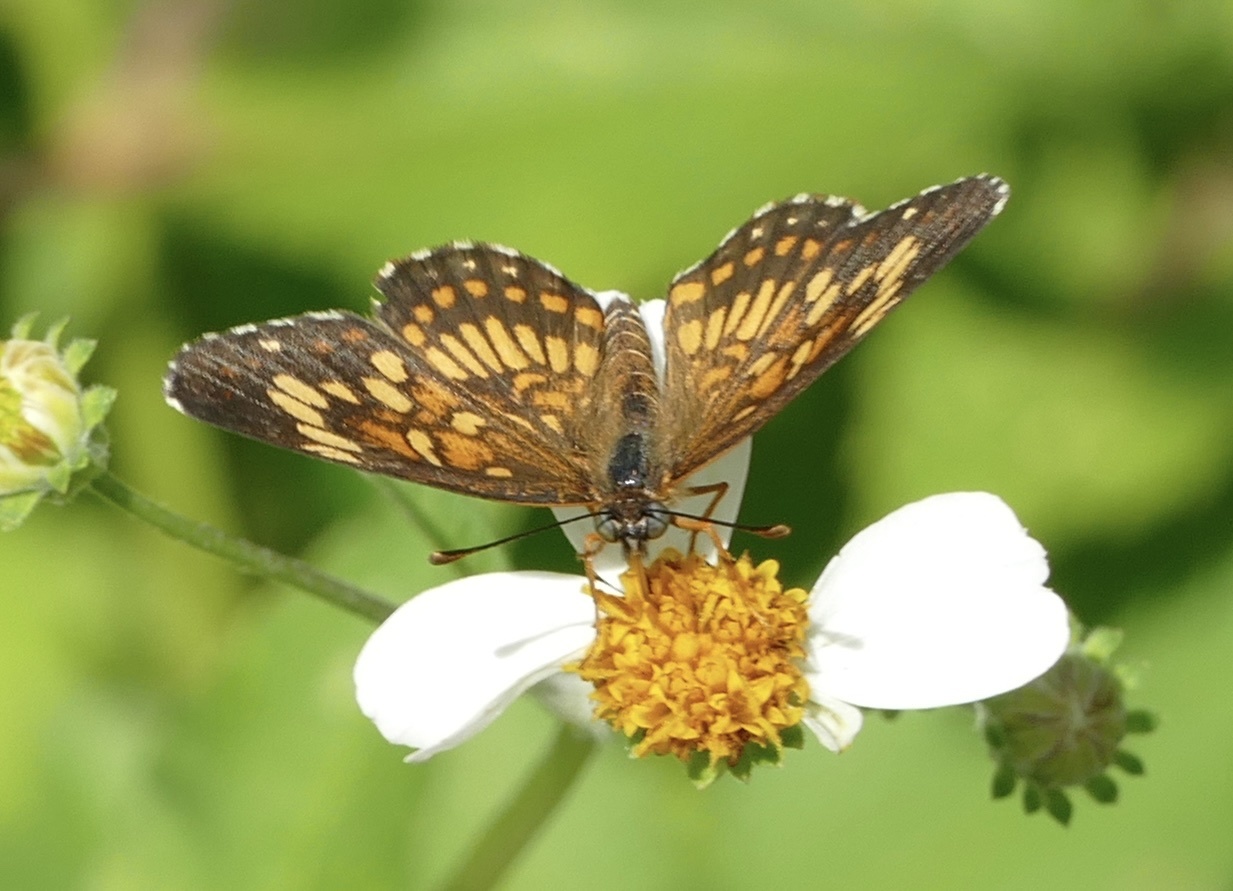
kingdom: Animalia
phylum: Arthropoda
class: Insecta
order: Lepidoptera
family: Nymphalidae
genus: Thessalia
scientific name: Thessalia theona
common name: Nymphalid moth
